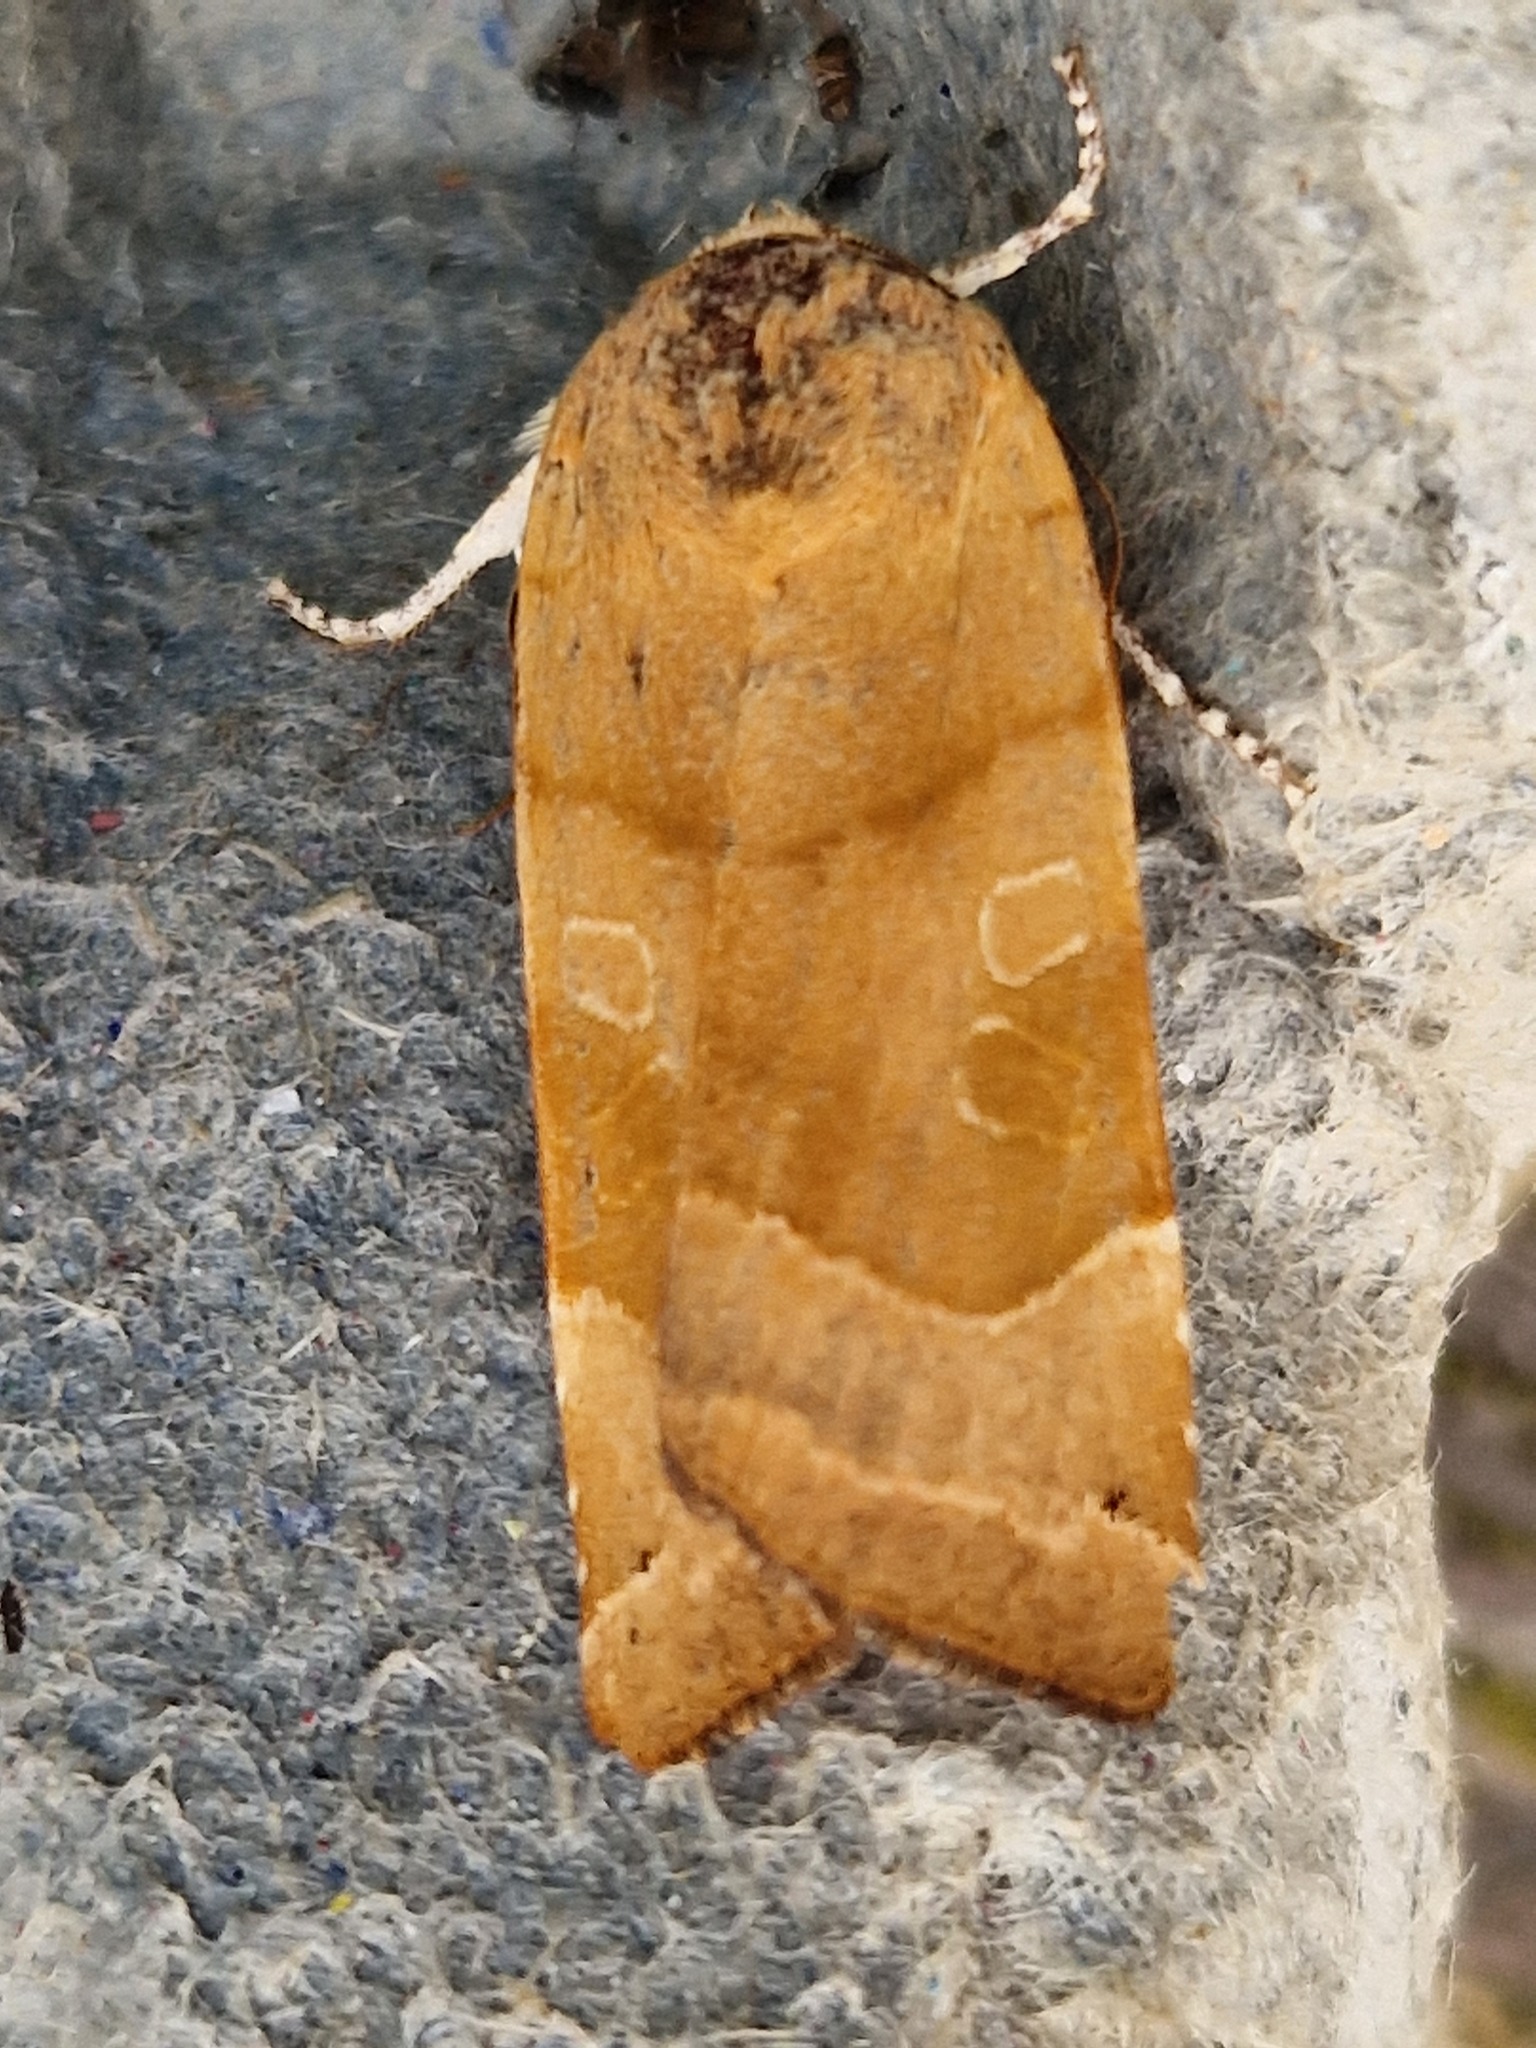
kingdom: Animalia
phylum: Arthropoda
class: Insecta
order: Lepidoptera
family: Noctuidae
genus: Noctua
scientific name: Noctua fimbriata
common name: Broad-bordered yellow underwing
